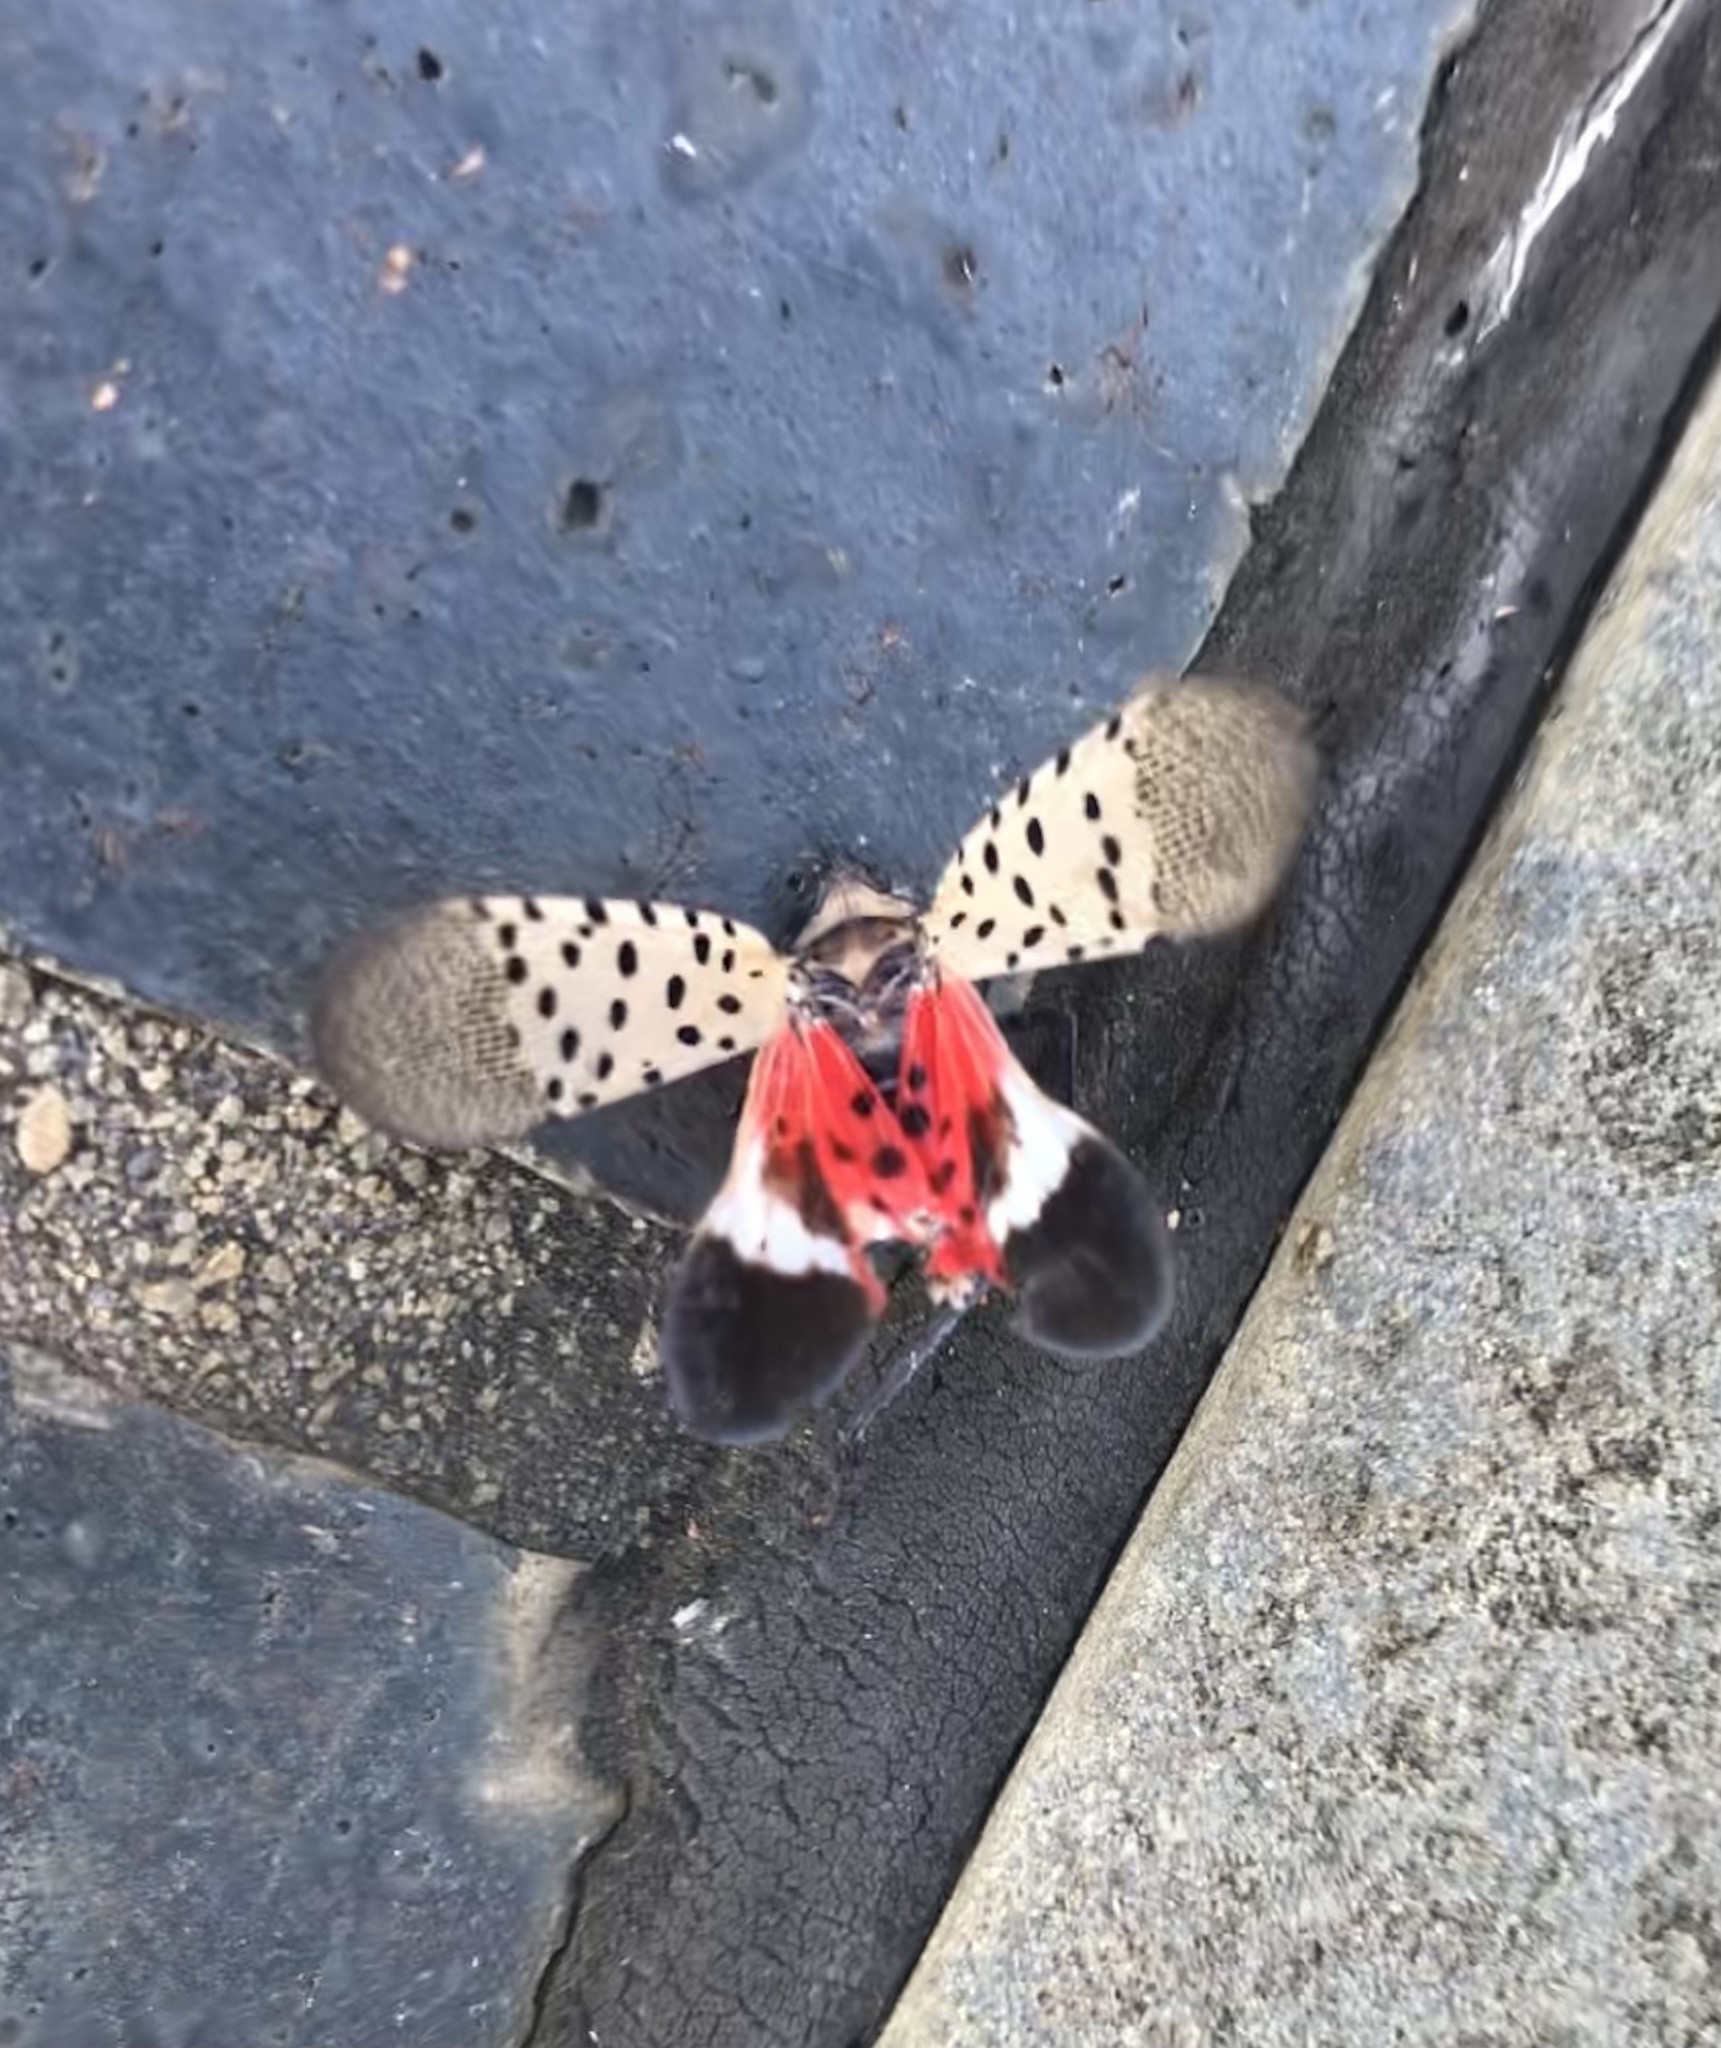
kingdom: Animalia
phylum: Arthropoda
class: Insecta
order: Hemiptera
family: Fulgoridae
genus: Lycorma
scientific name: Lycorma delicatula
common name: Spotted lanternfly
